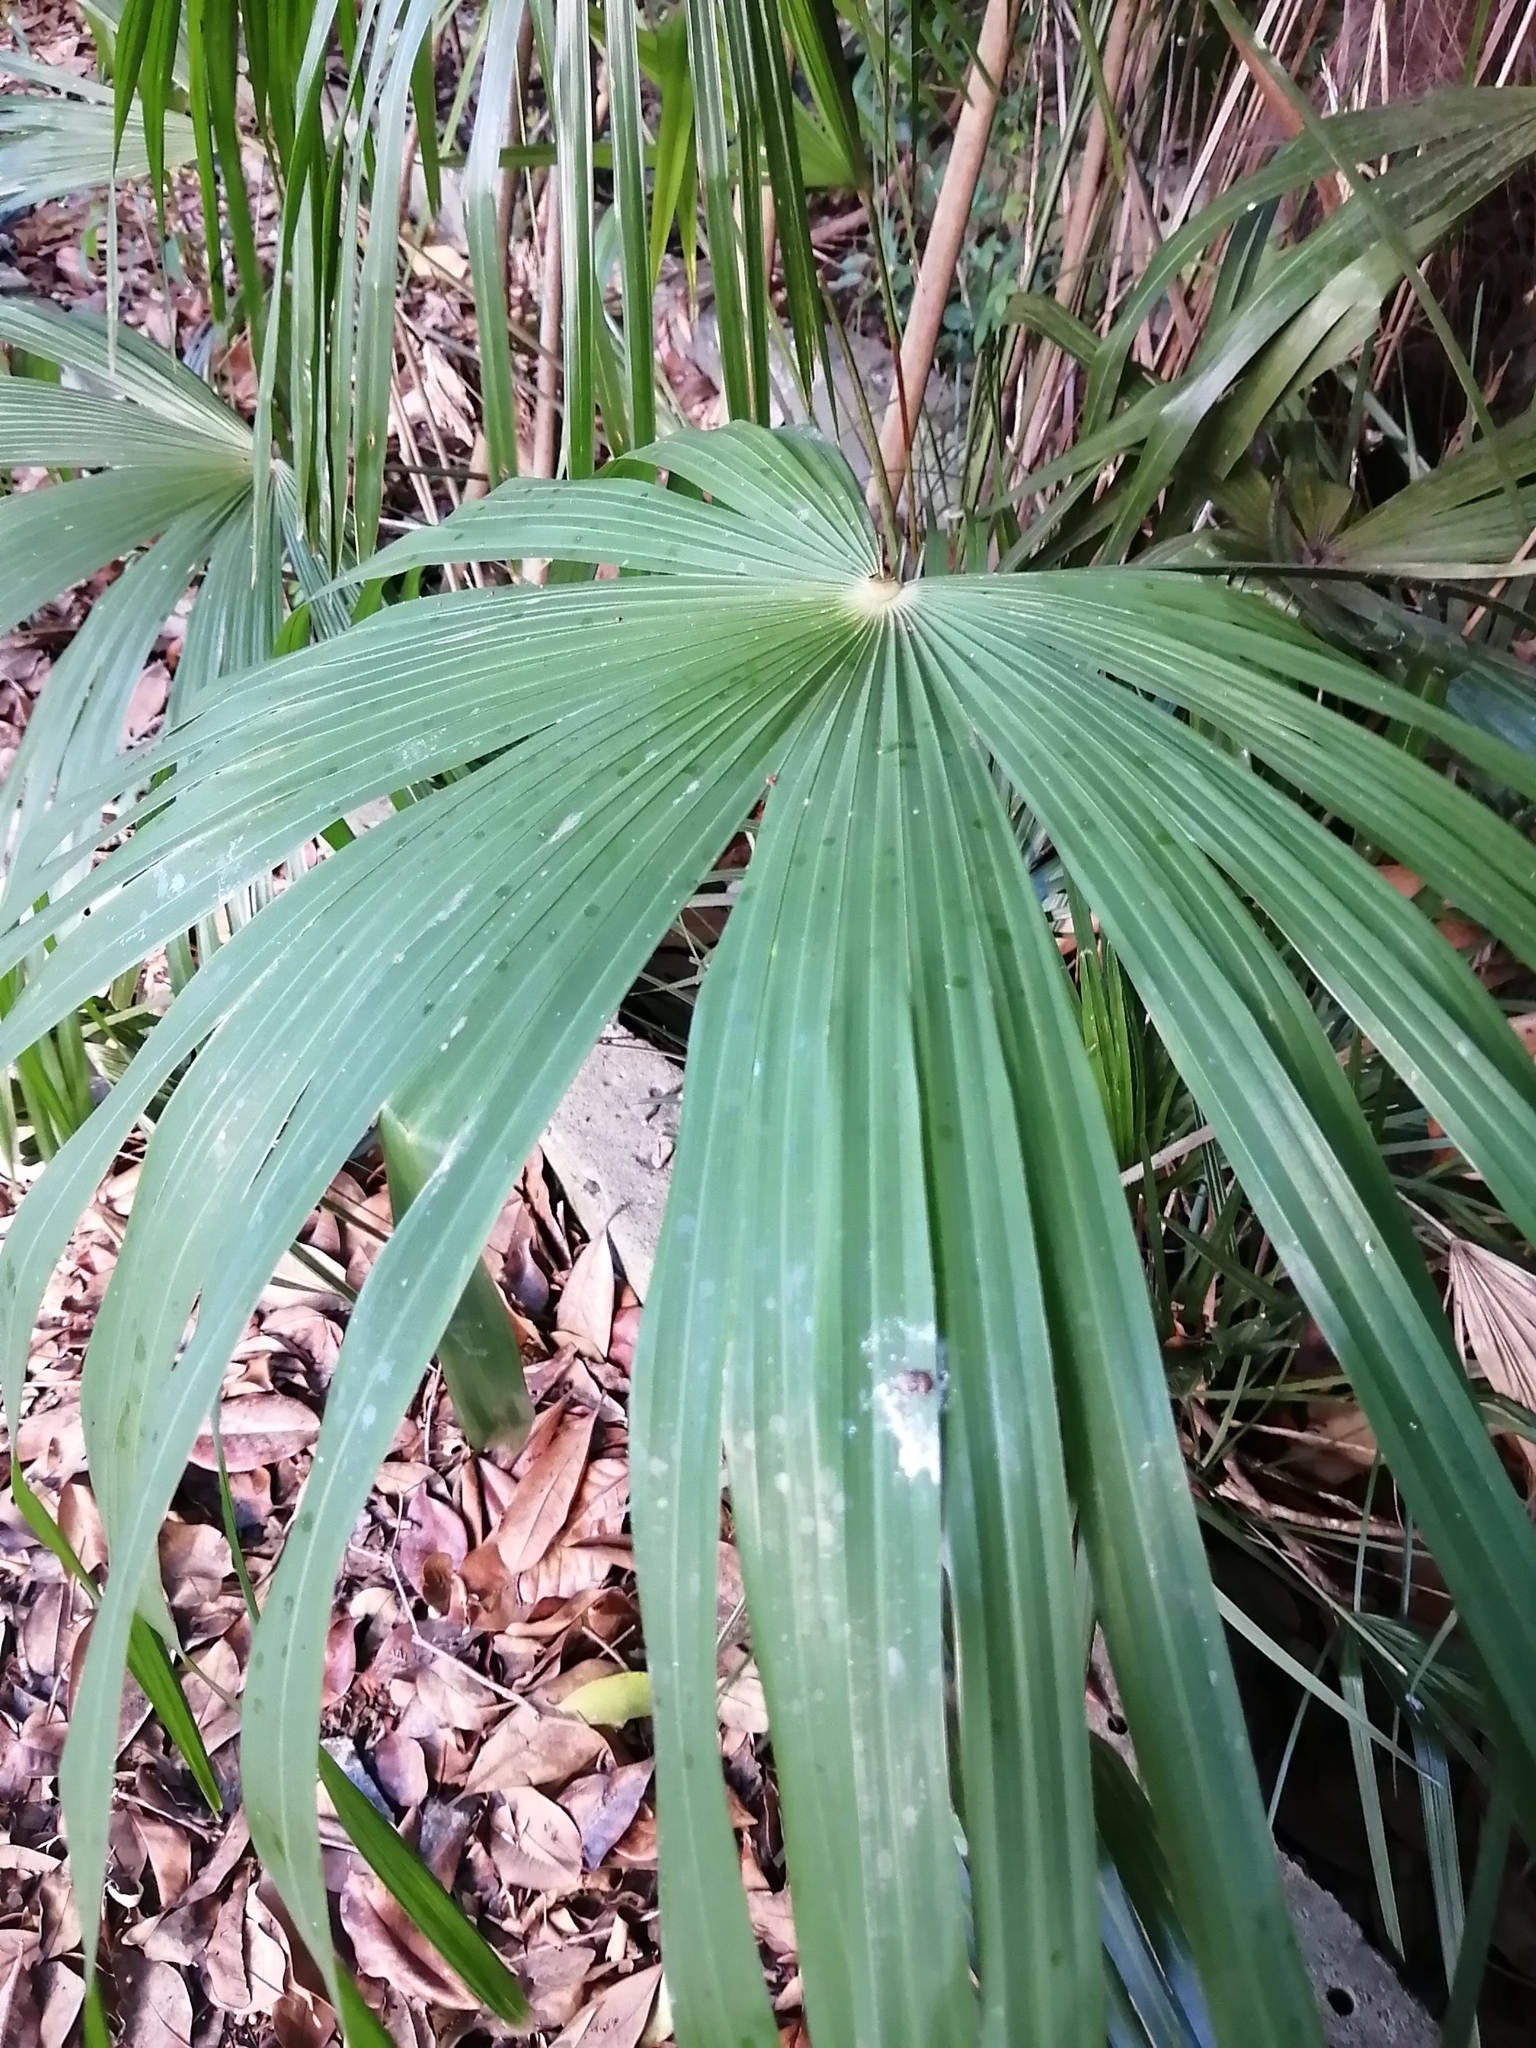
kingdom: Plantae
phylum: Tracheophyta
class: Liliopsida
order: Arecales
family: Arecaceae
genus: Trachycarpus
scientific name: Trachycarpus fortunei
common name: Chusan palm
